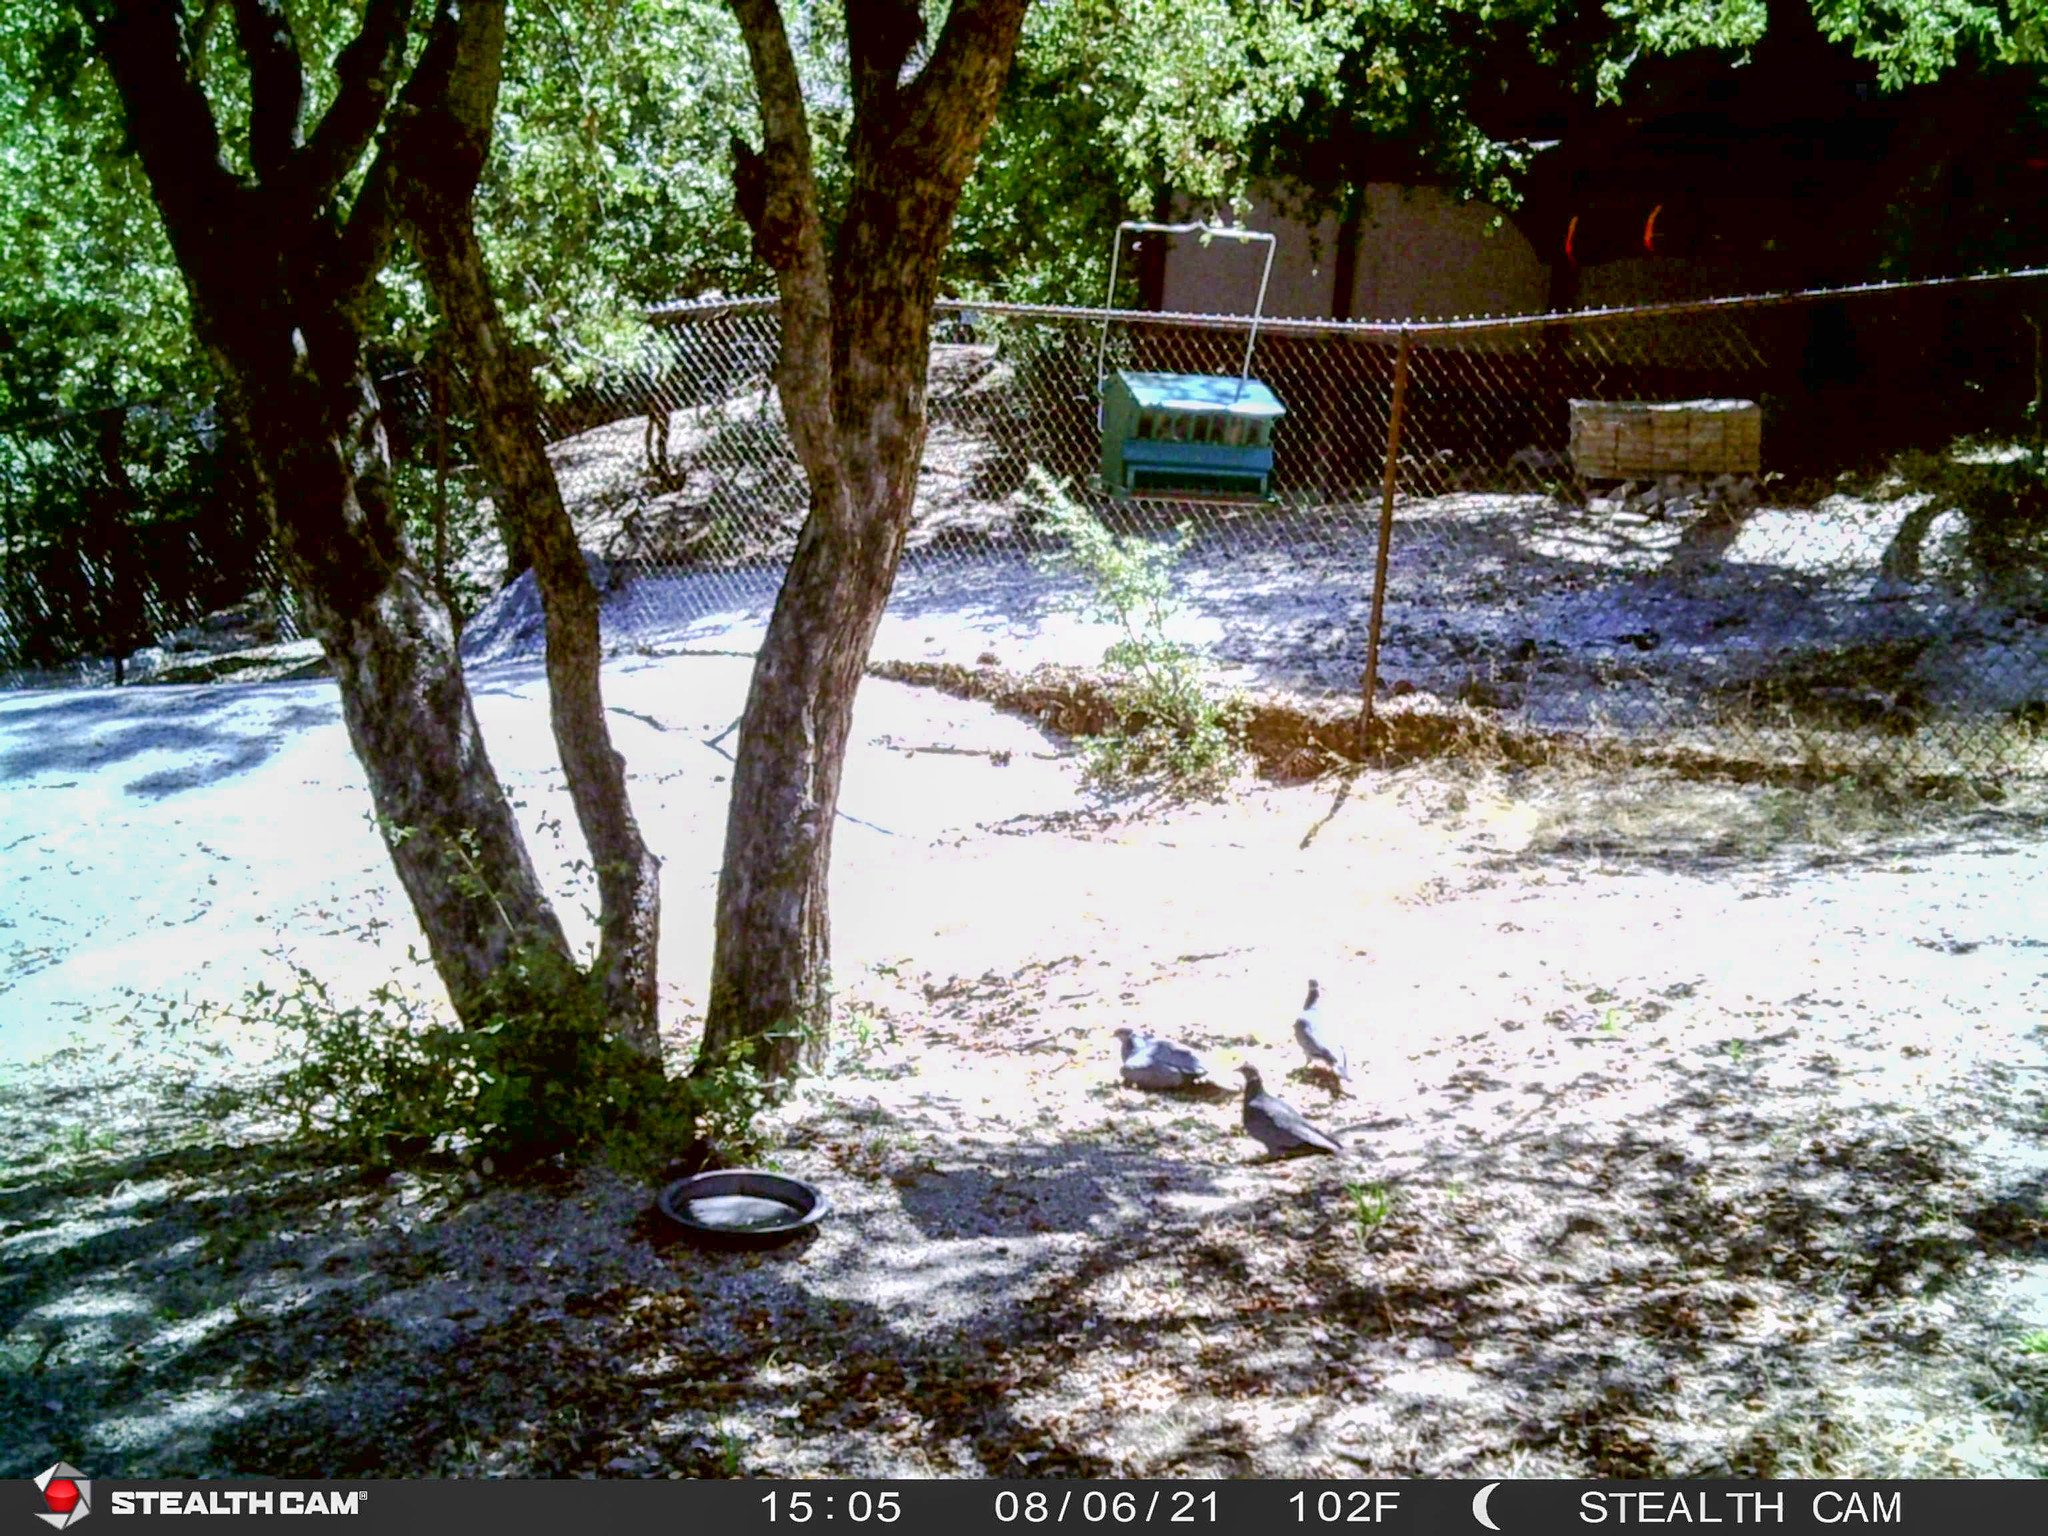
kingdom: Animalia
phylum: Chordata
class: Aves
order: Columbiformes
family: Columbidae
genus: Patagioenas
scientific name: Patagioenas fasciata
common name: Band-tailed pigeon
